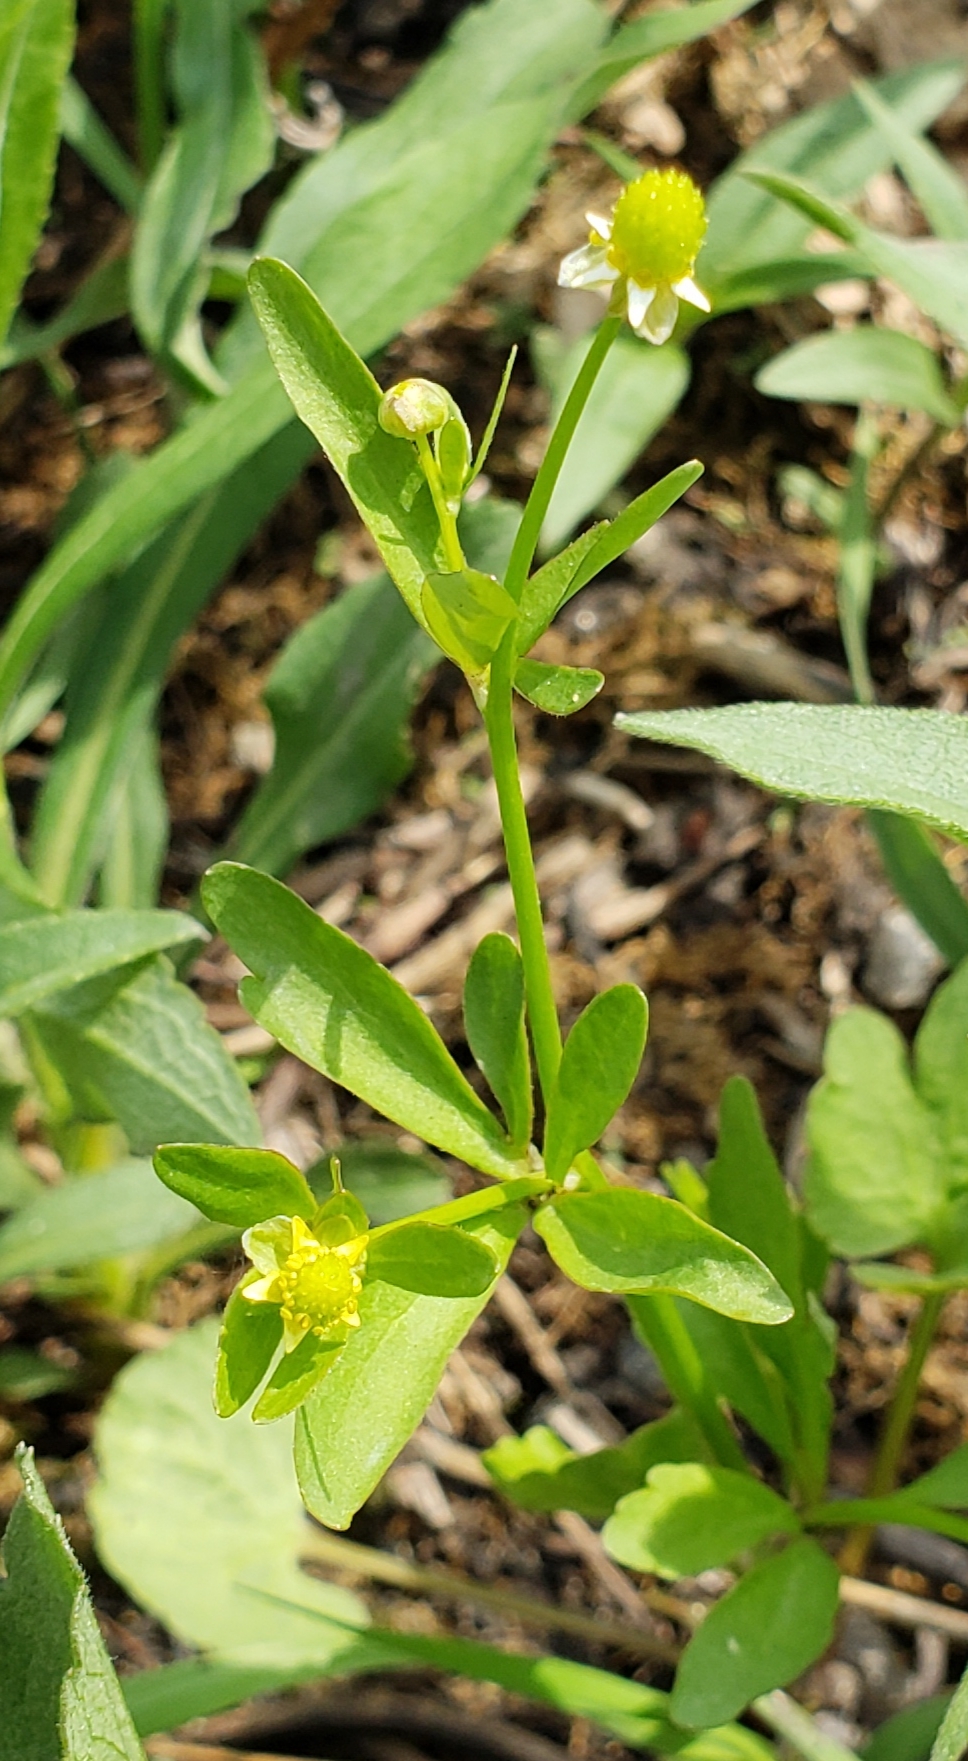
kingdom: Plantae
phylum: Tracheophyta
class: Magnoliopsida
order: Ranunculales
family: Ranunculaceae
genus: Ranunculus
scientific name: Ranunculus abortivus
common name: Early wood buttercup
